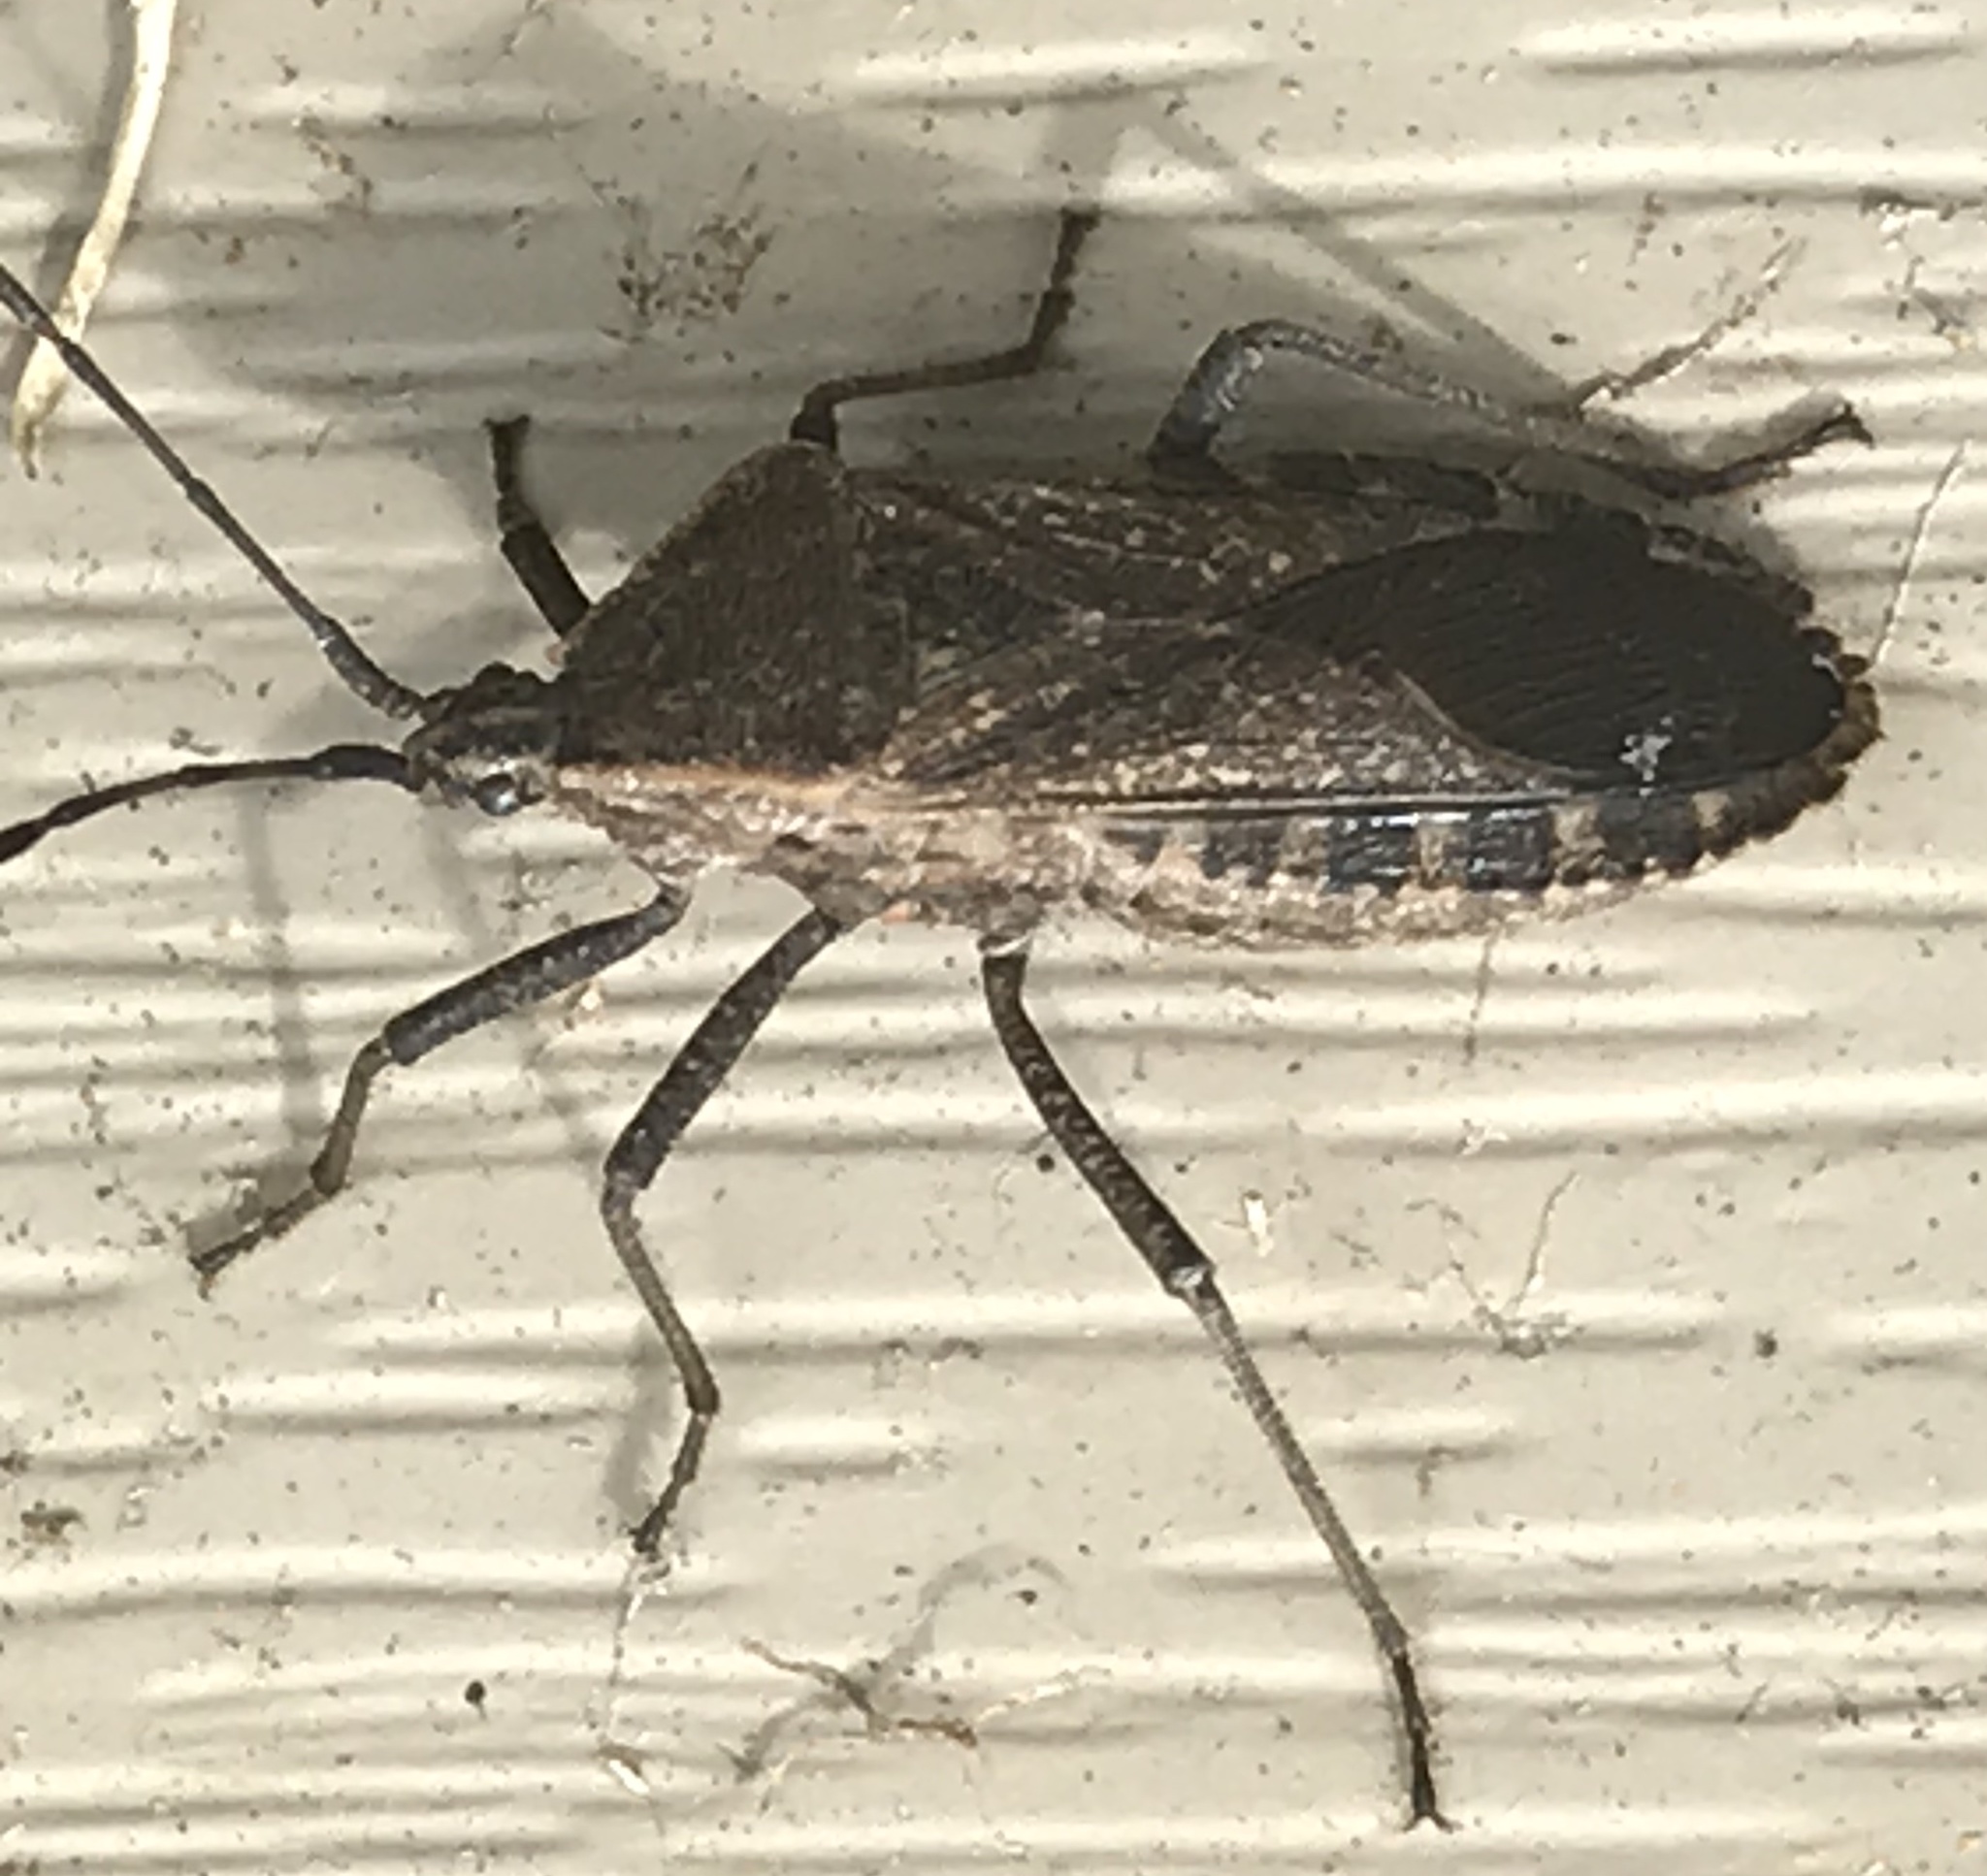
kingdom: Animalia
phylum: Arthropoda
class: Insecta
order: Hemiptera
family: Coreidae
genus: Anasa
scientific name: Anasa tristis
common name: Squash bug
